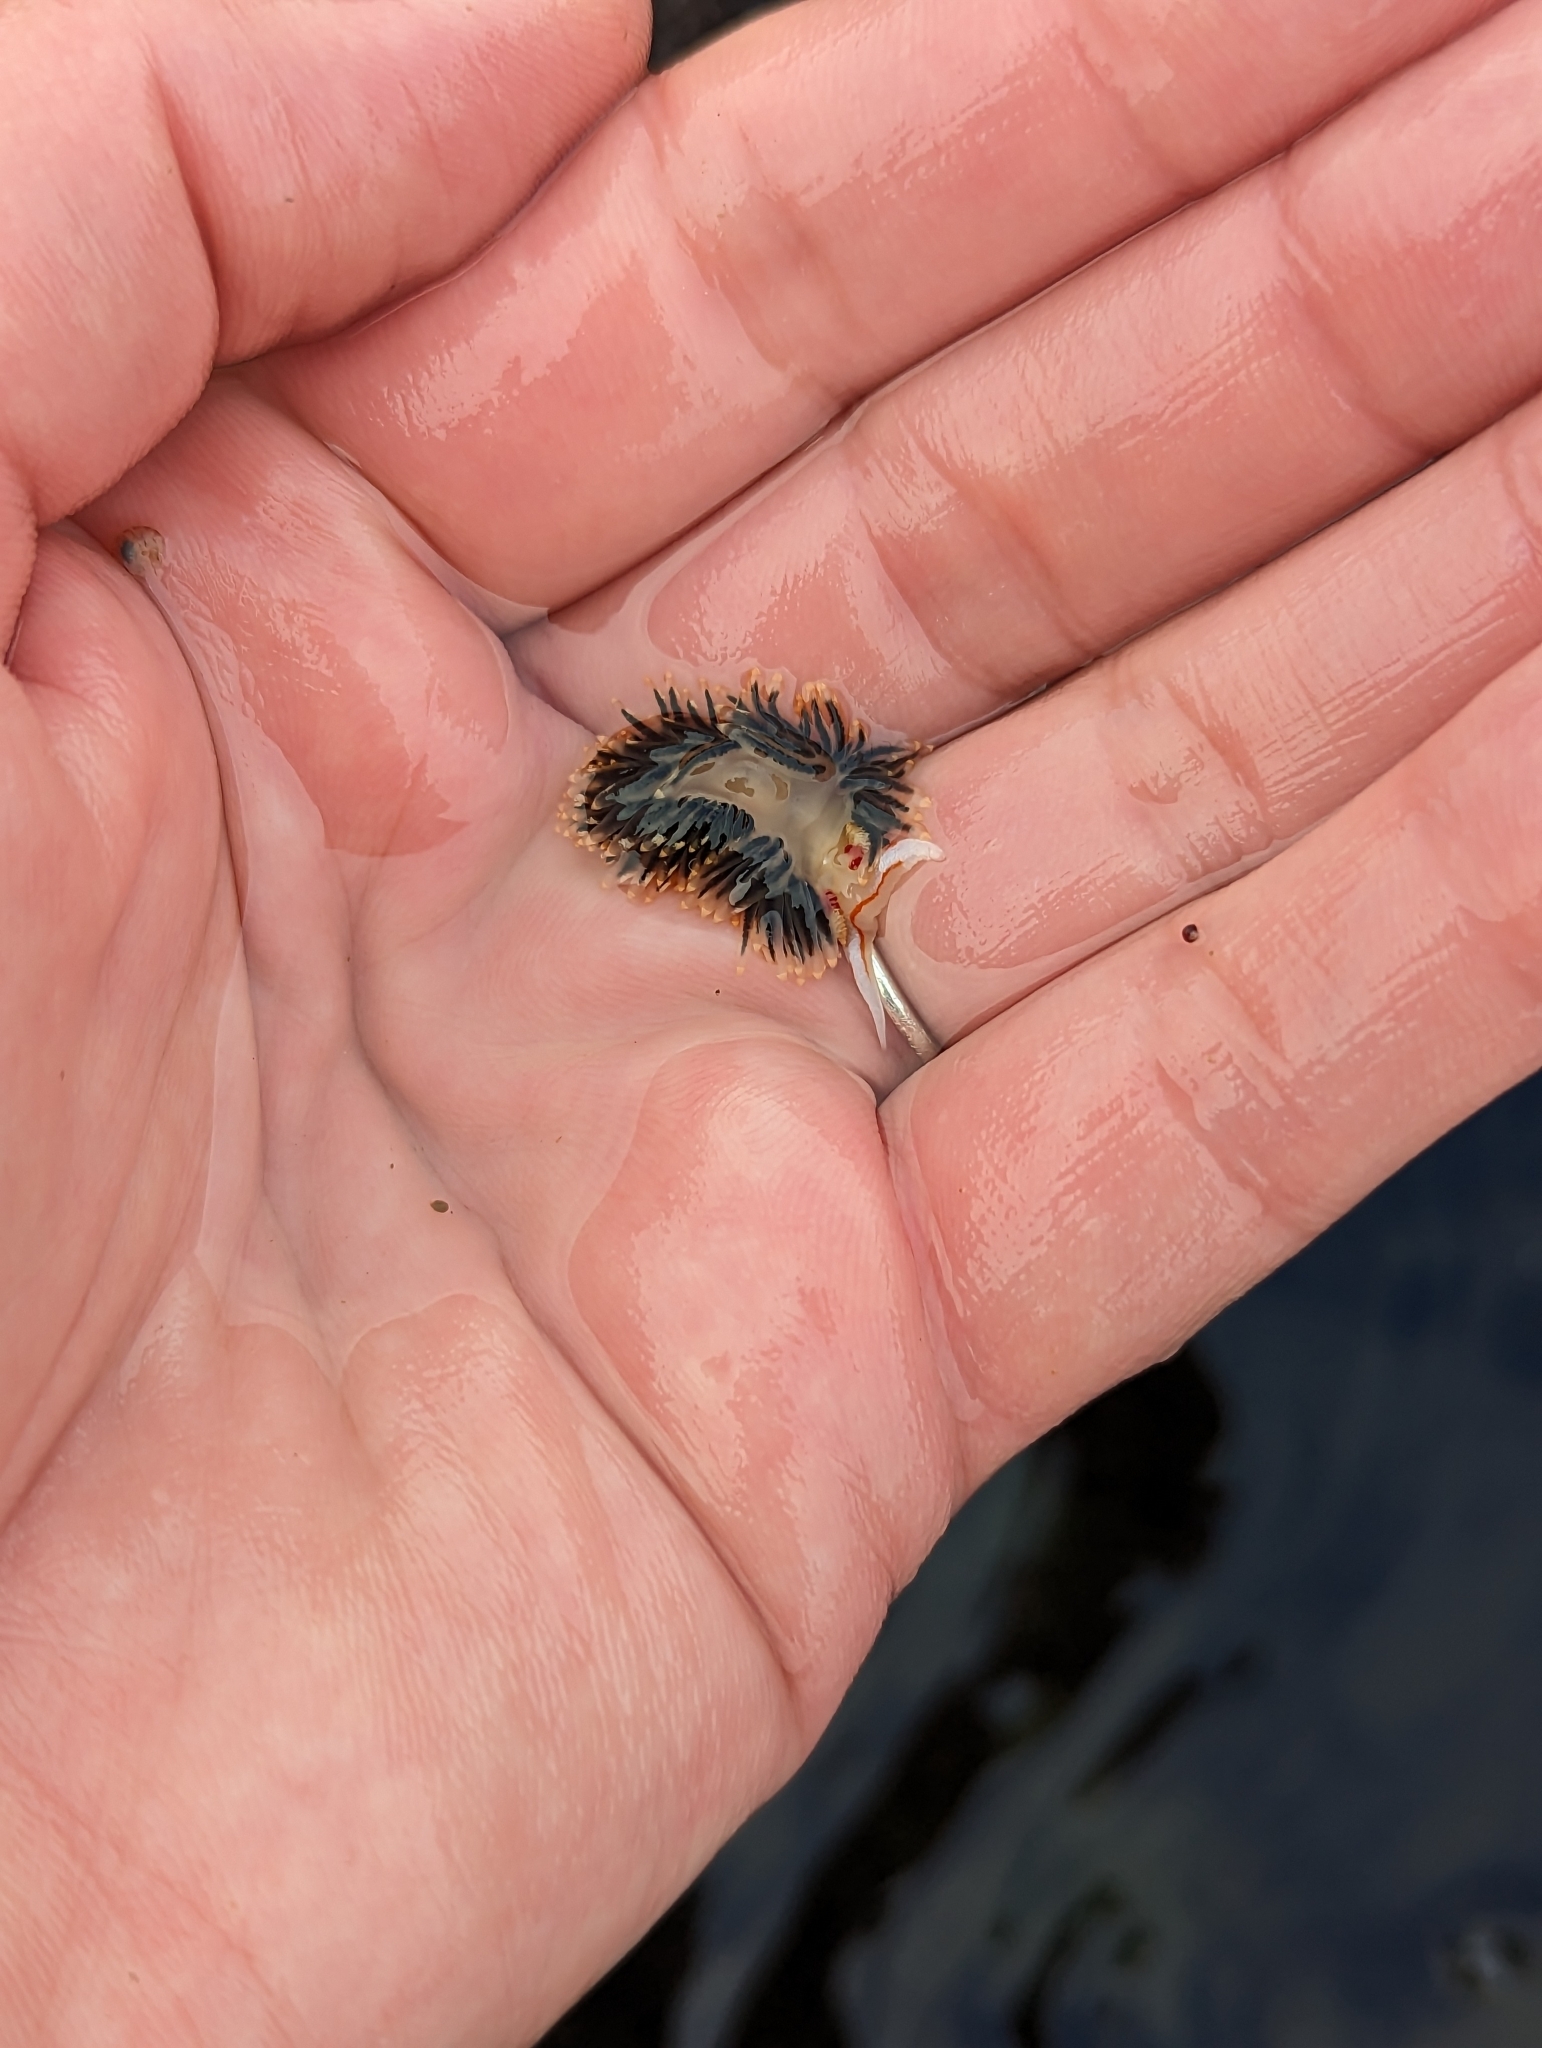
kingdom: Animalia
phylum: Mollusca
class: Gastropoda
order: Nudibranchia
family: Facelinidae
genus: Phidiana
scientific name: Phidiana hiltoni
